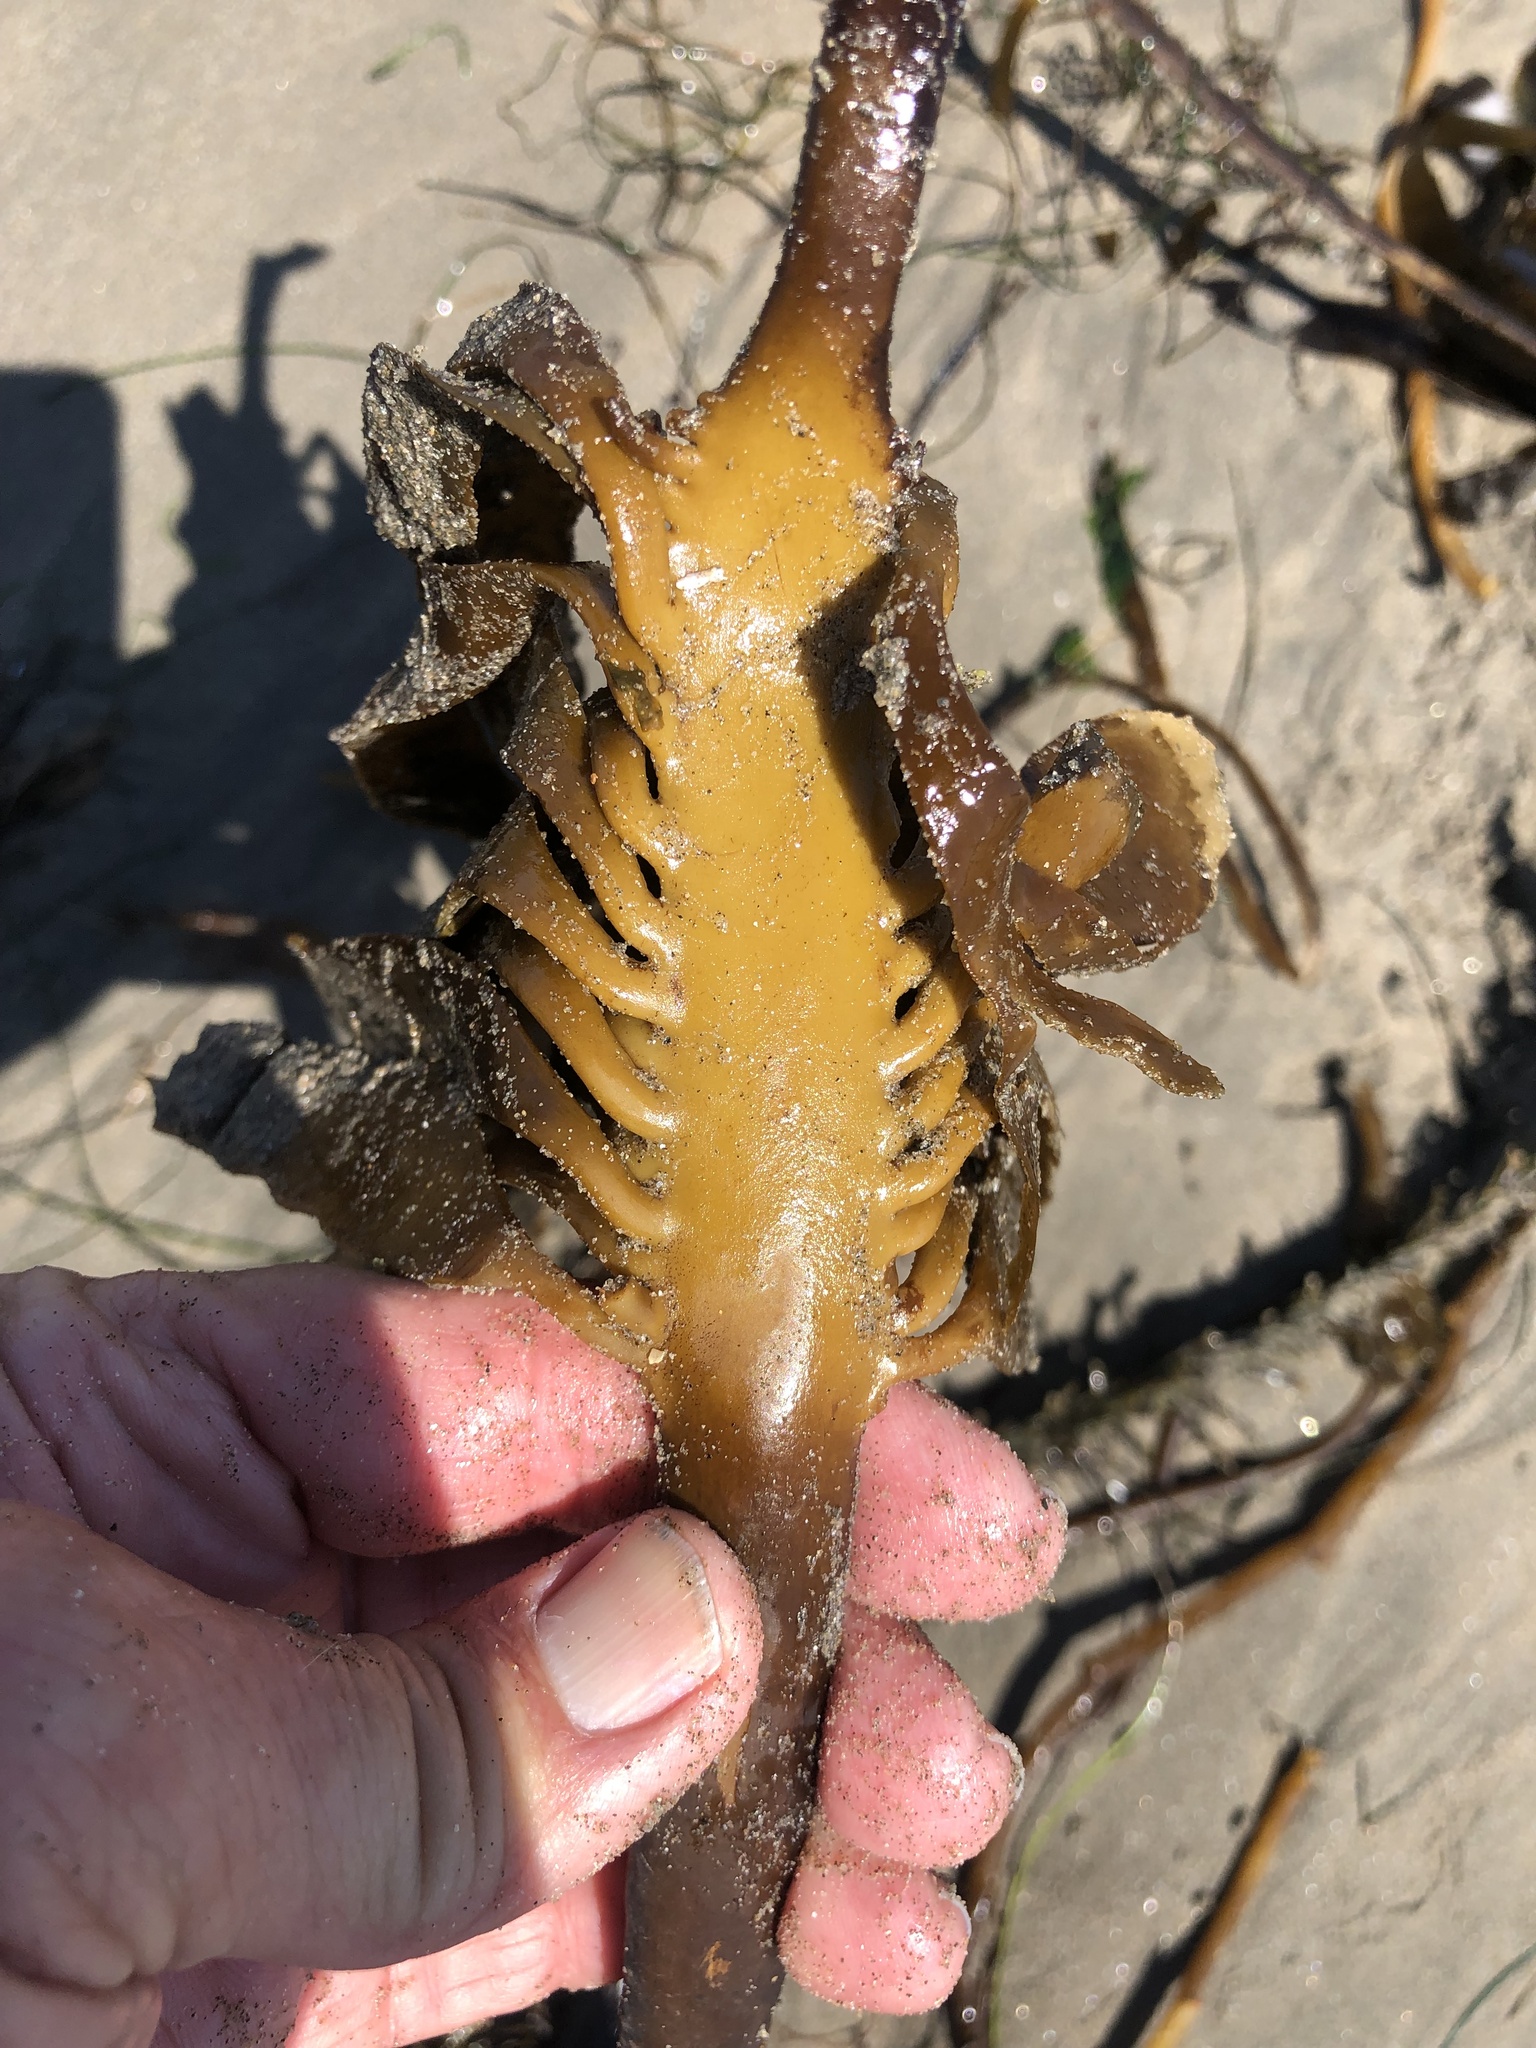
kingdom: Chromista
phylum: Ochrophyta
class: Phaeophyceae
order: Laminariales
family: Alariaceae
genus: Pterygophora
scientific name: Pterygophora californica
